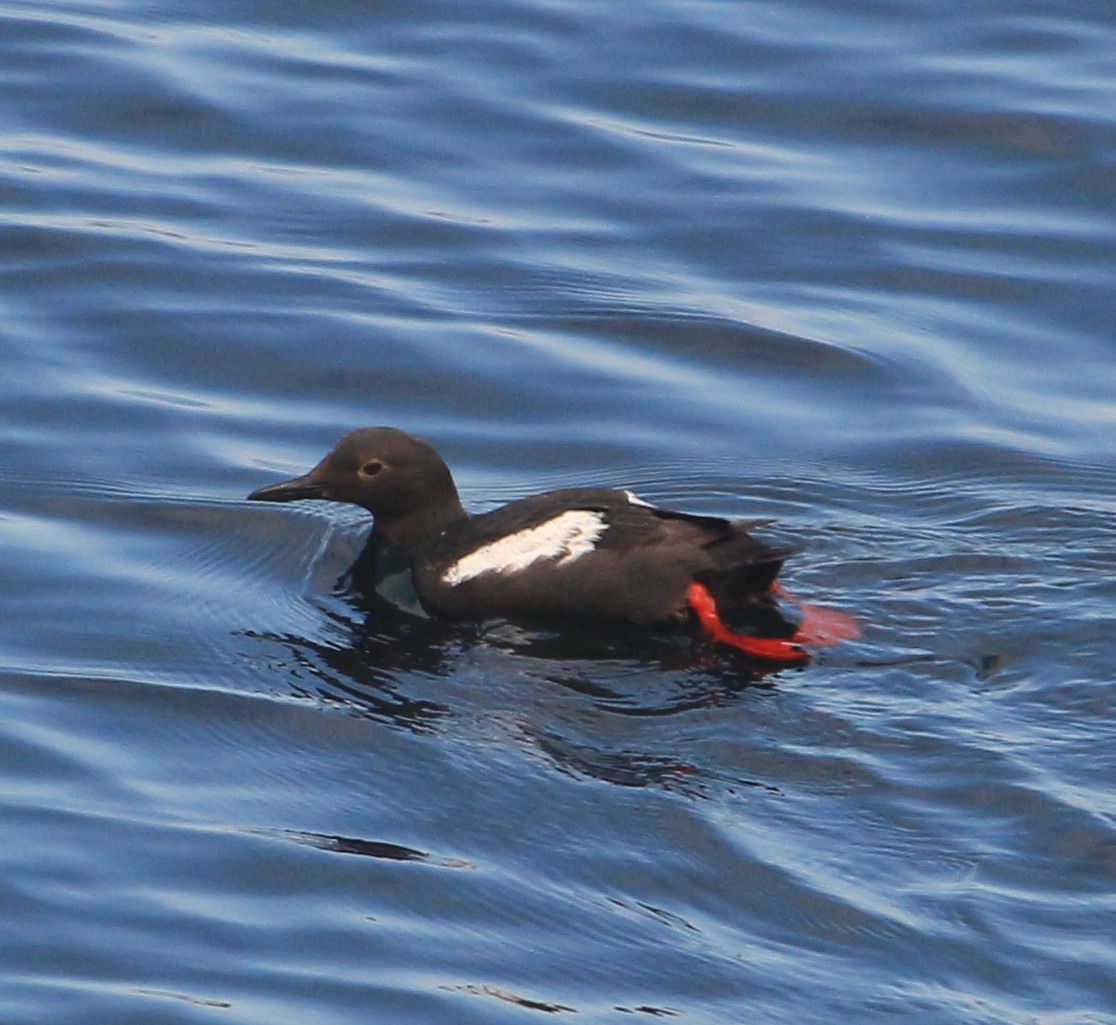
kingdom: Animalia
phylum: Chordata
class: Aves
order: Charadriiformes
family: Alcidae
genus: Cepphus
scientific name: Cepphus columba
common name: Pigeon guillemot
